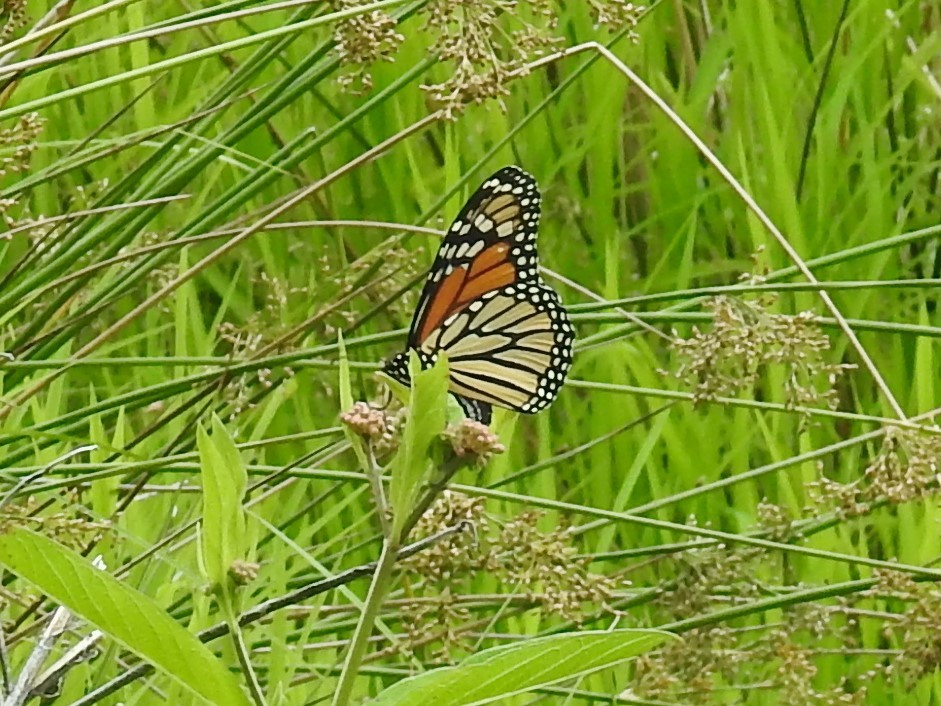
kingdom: Animalia
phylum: Arthropoda
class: Insecta
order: Lepidoptera
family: Nymphalidae
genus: Danaus
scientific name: Danaus plexippus
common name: Monarch
